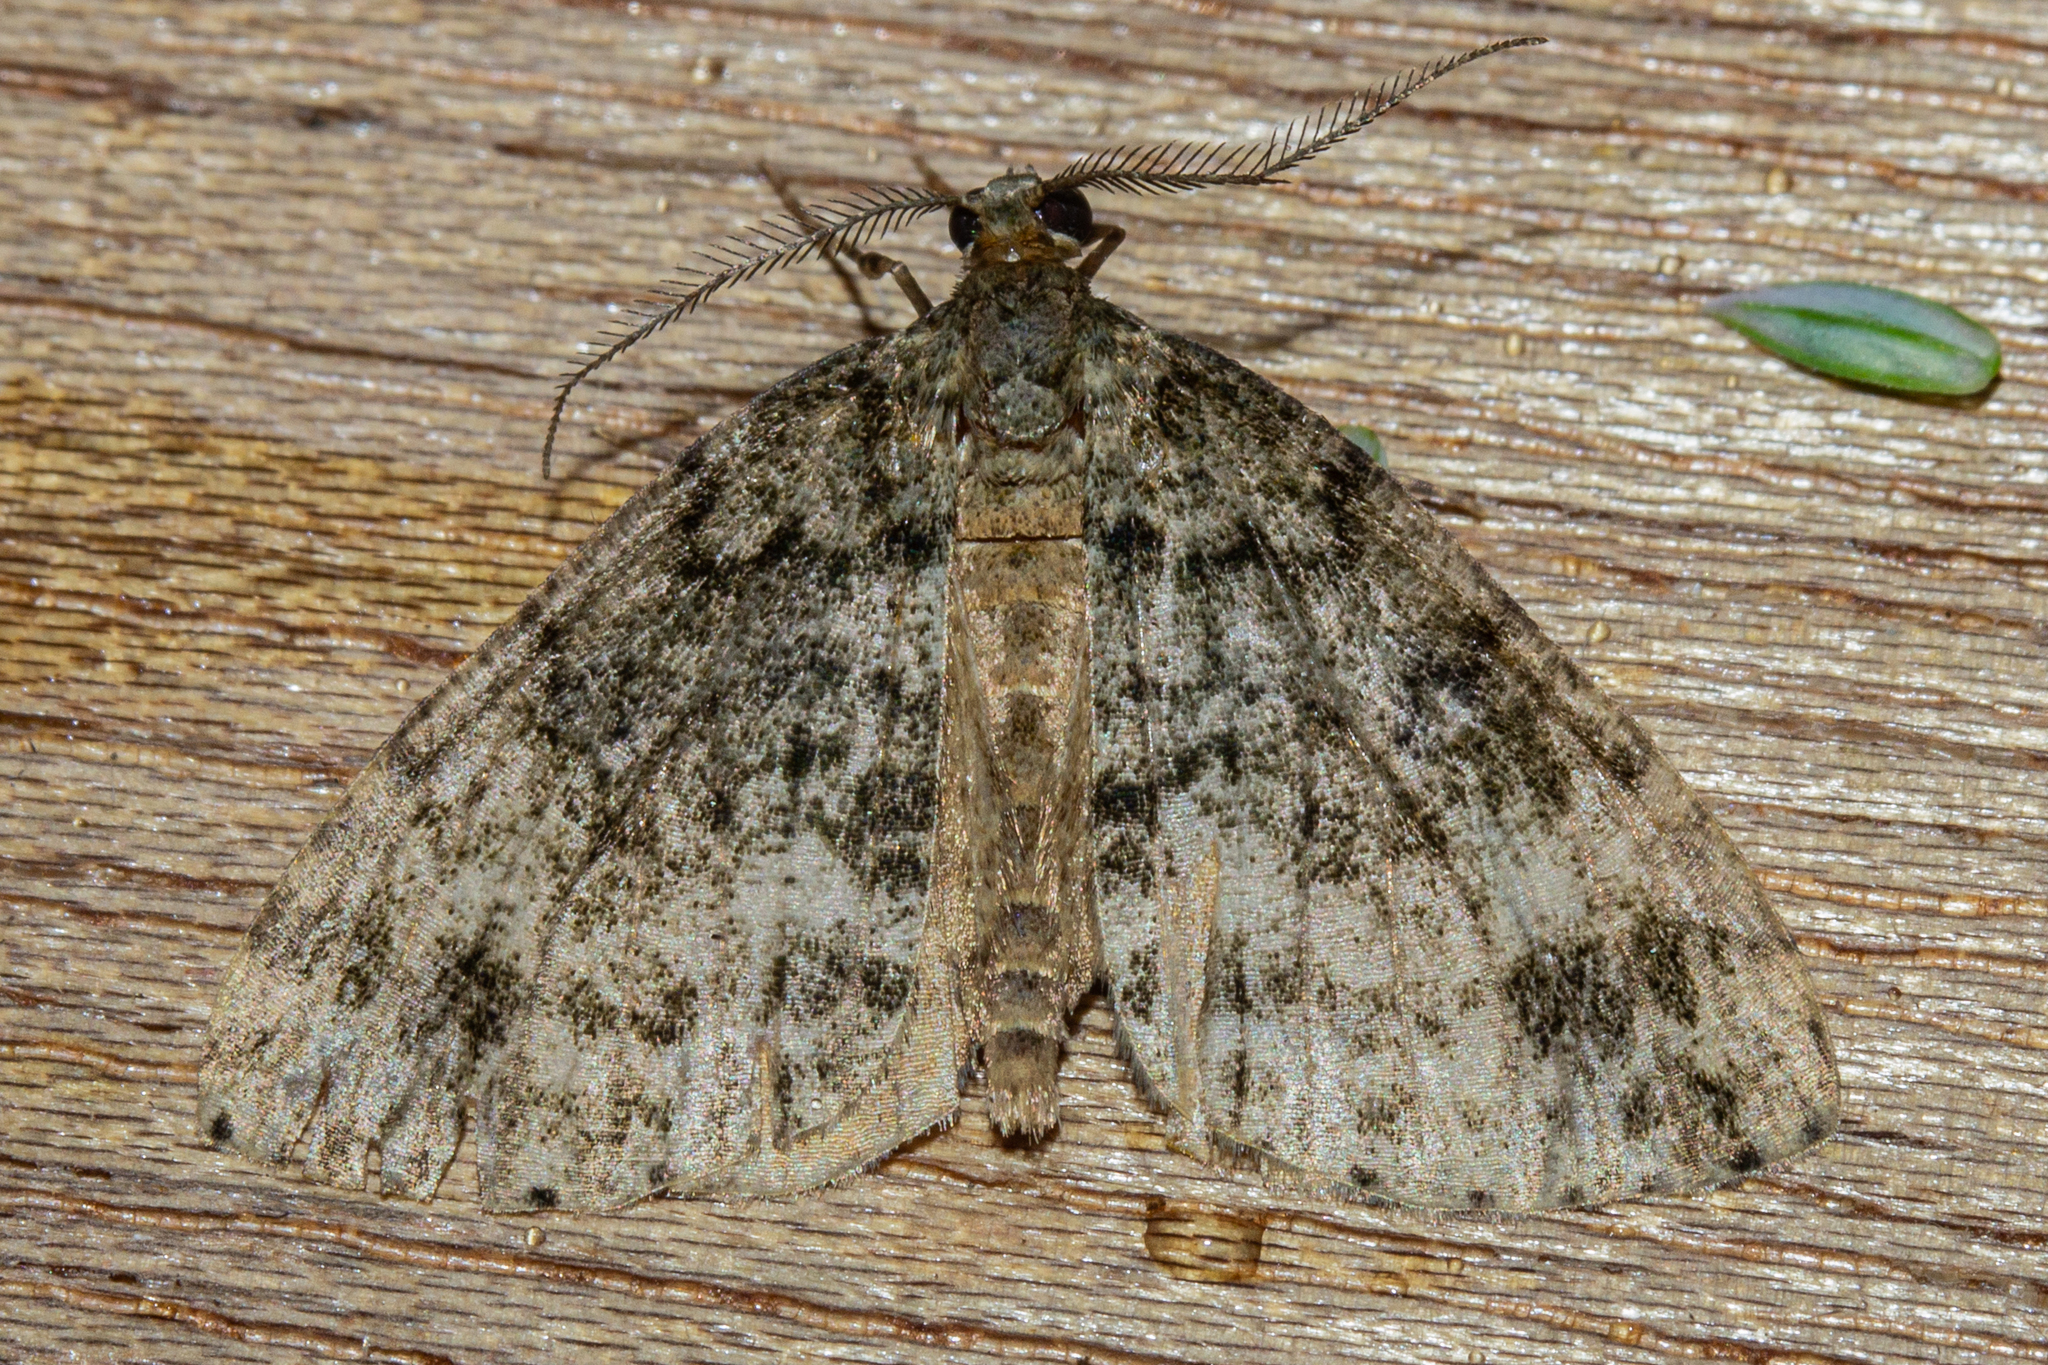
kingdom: Animalia
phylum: Arthropoda
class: Insecta
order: Lepidoptera
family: Geometridae
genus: Pseudocoremia
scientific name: Pseudocoremia indistincta
